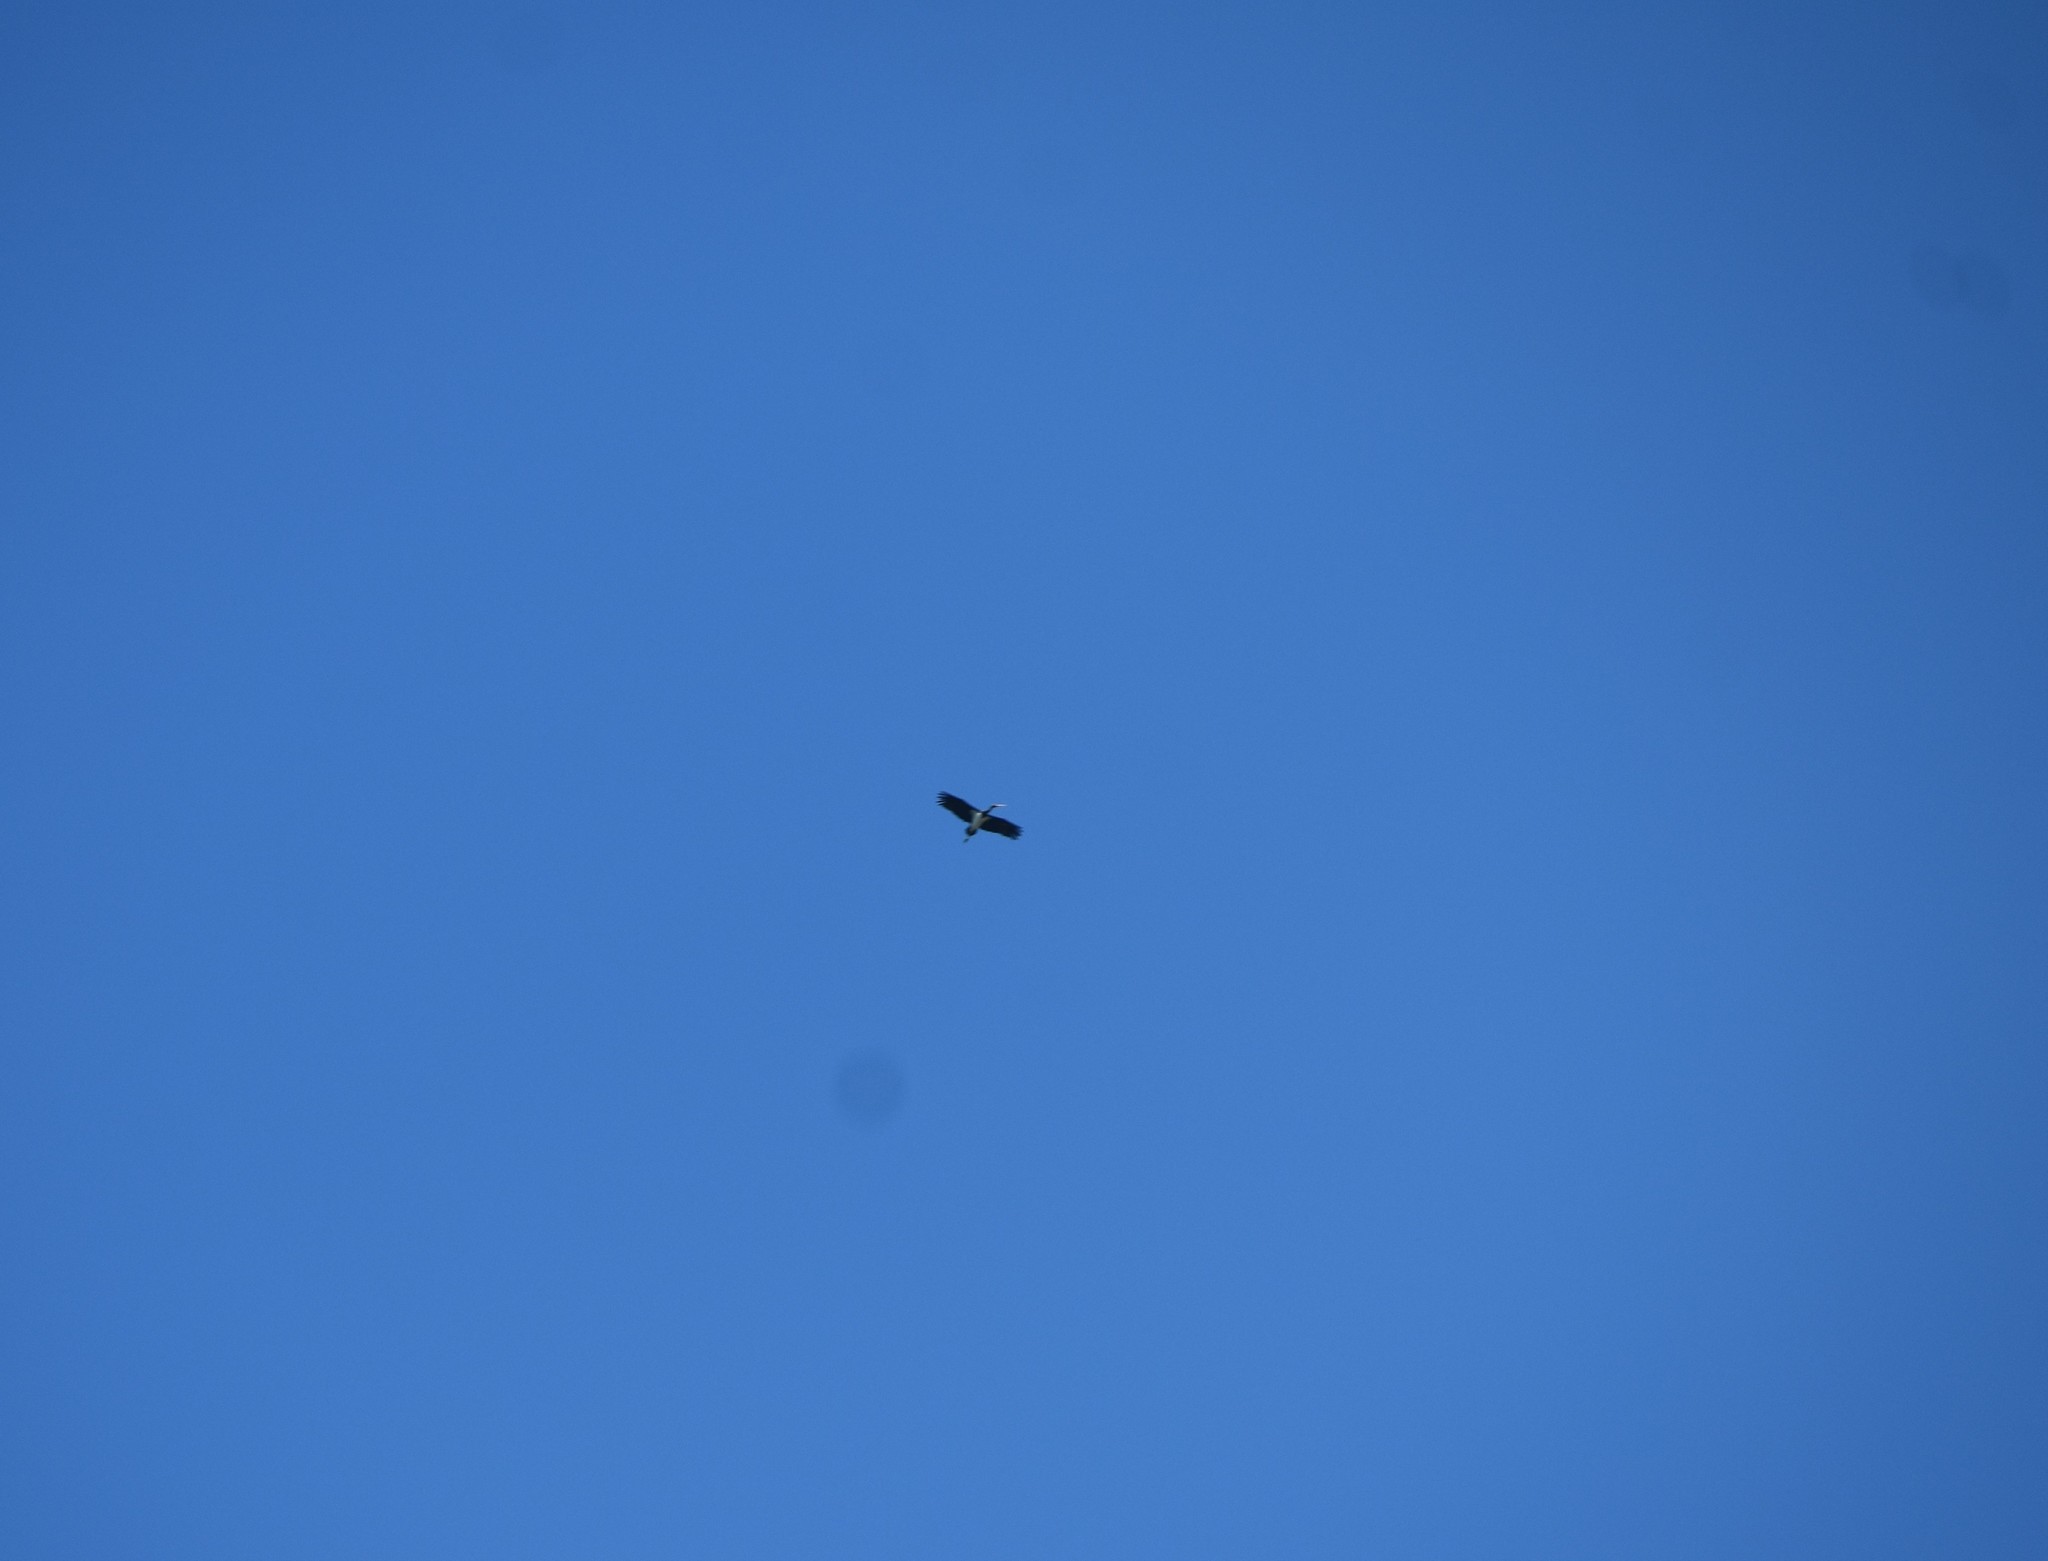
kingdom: Animalia
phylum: Chordata
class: Aves
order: Ciconiiformes
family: Ciconiidae
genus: Ciconia
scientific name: Ciconia nigra
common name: Black stork
